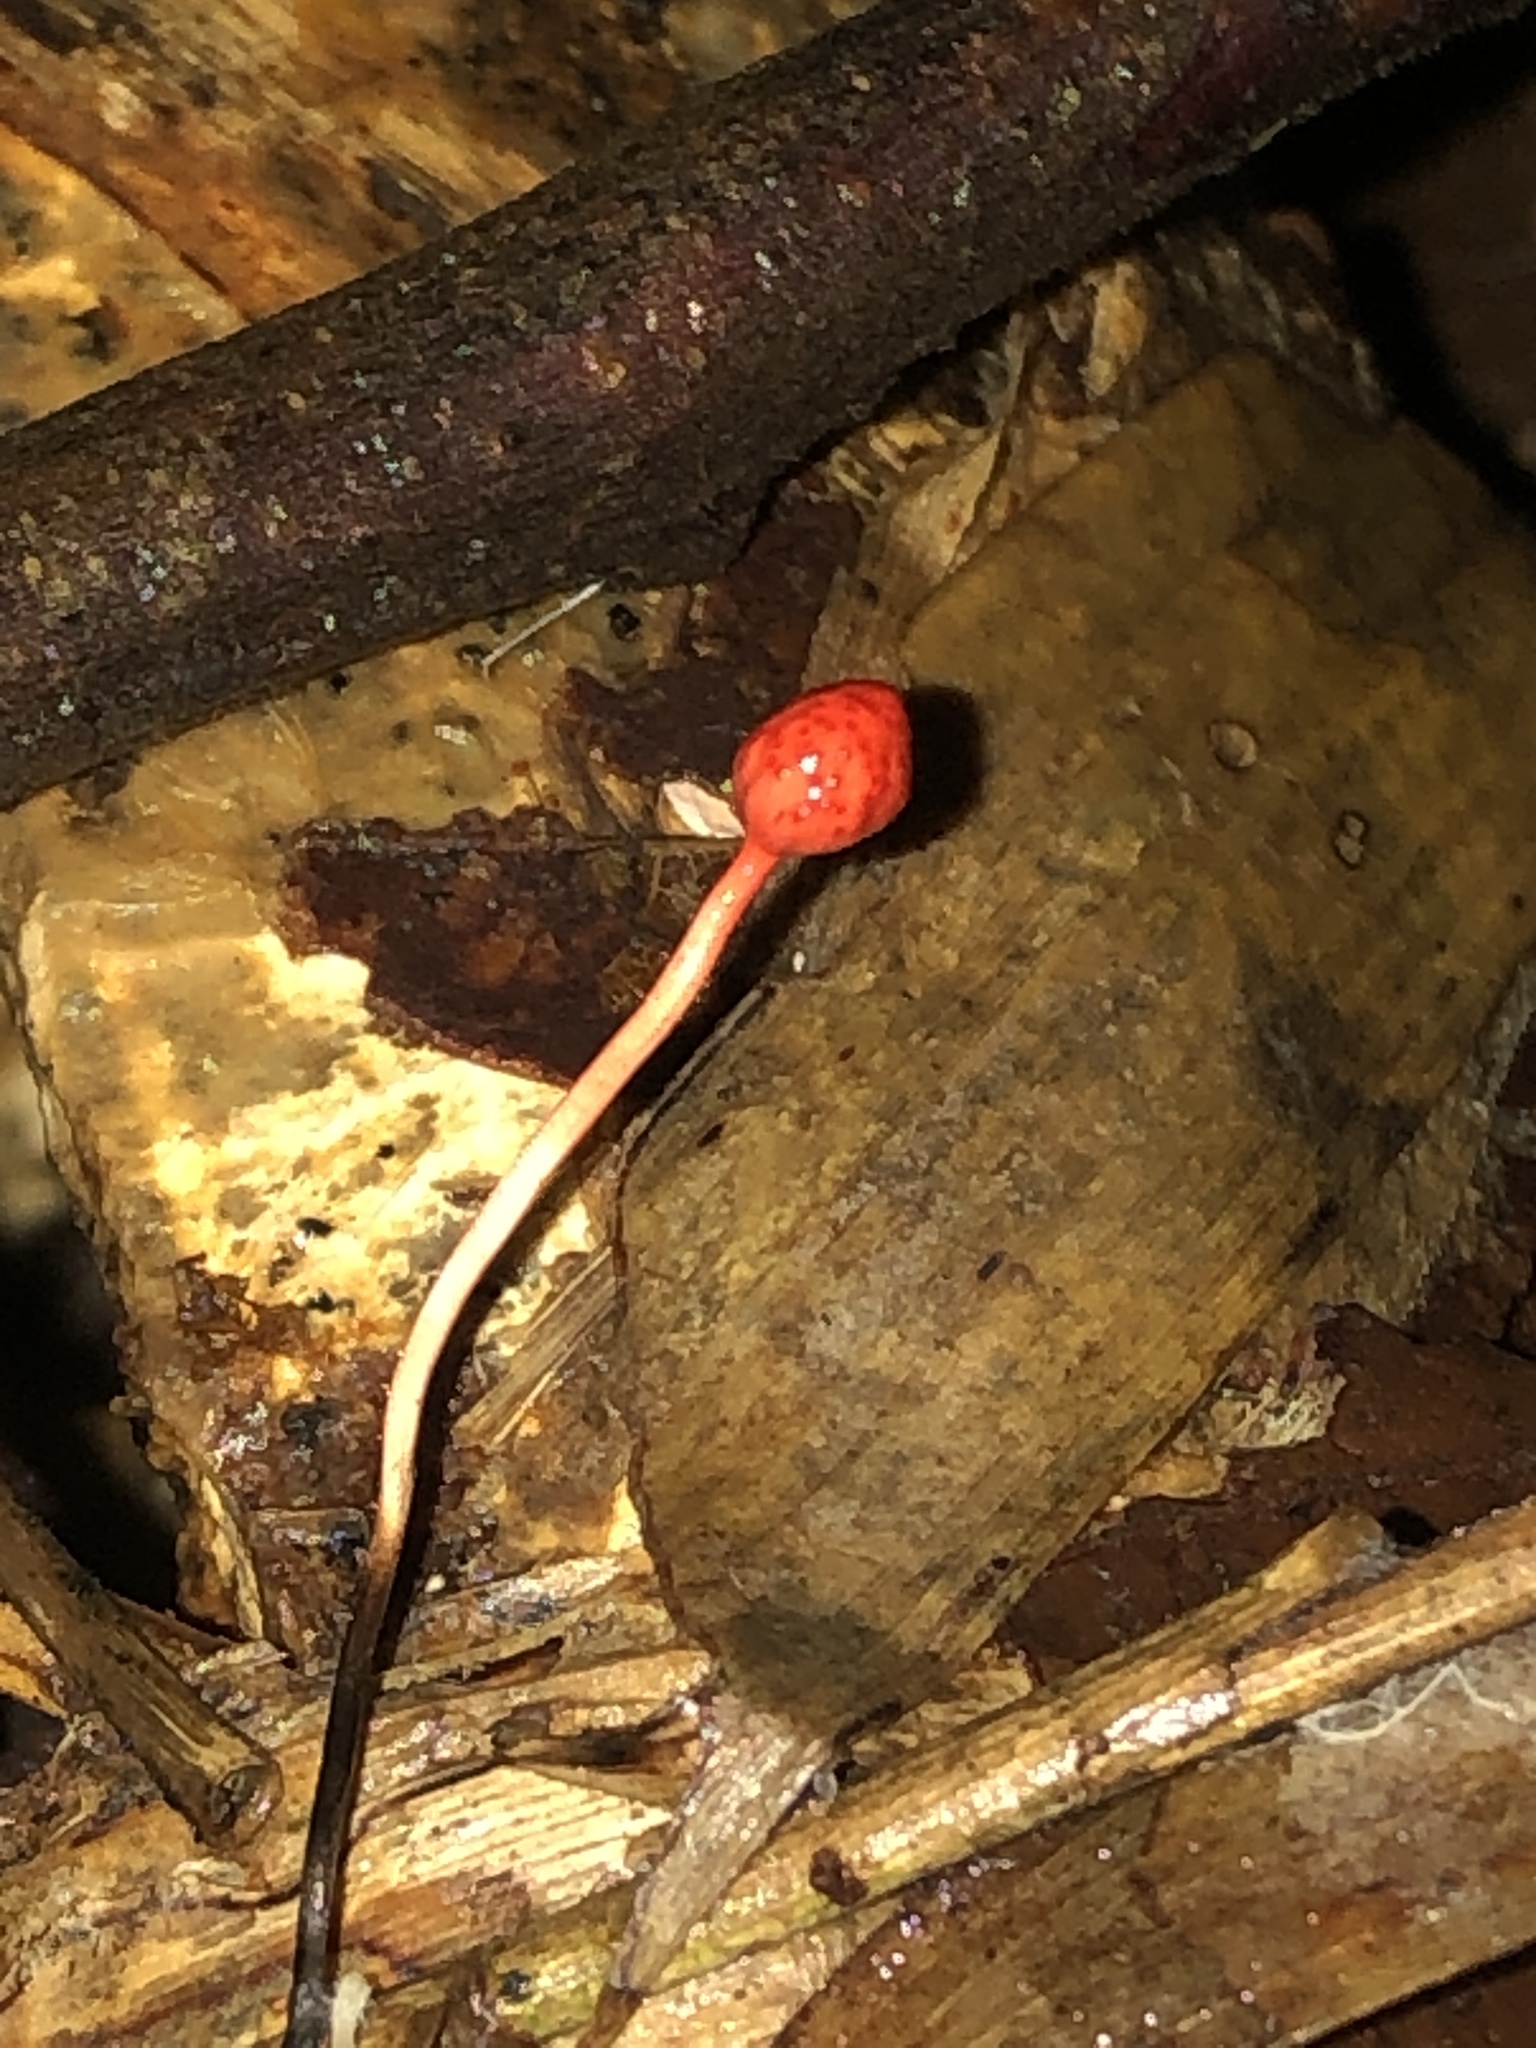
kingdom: Fungi
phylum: Ascomycota
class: Sordariomycetes
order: Hypocreales
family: Ophiocordycipitaceae
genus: Ophiocordyceps
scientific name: Ophiocordyceps australis
